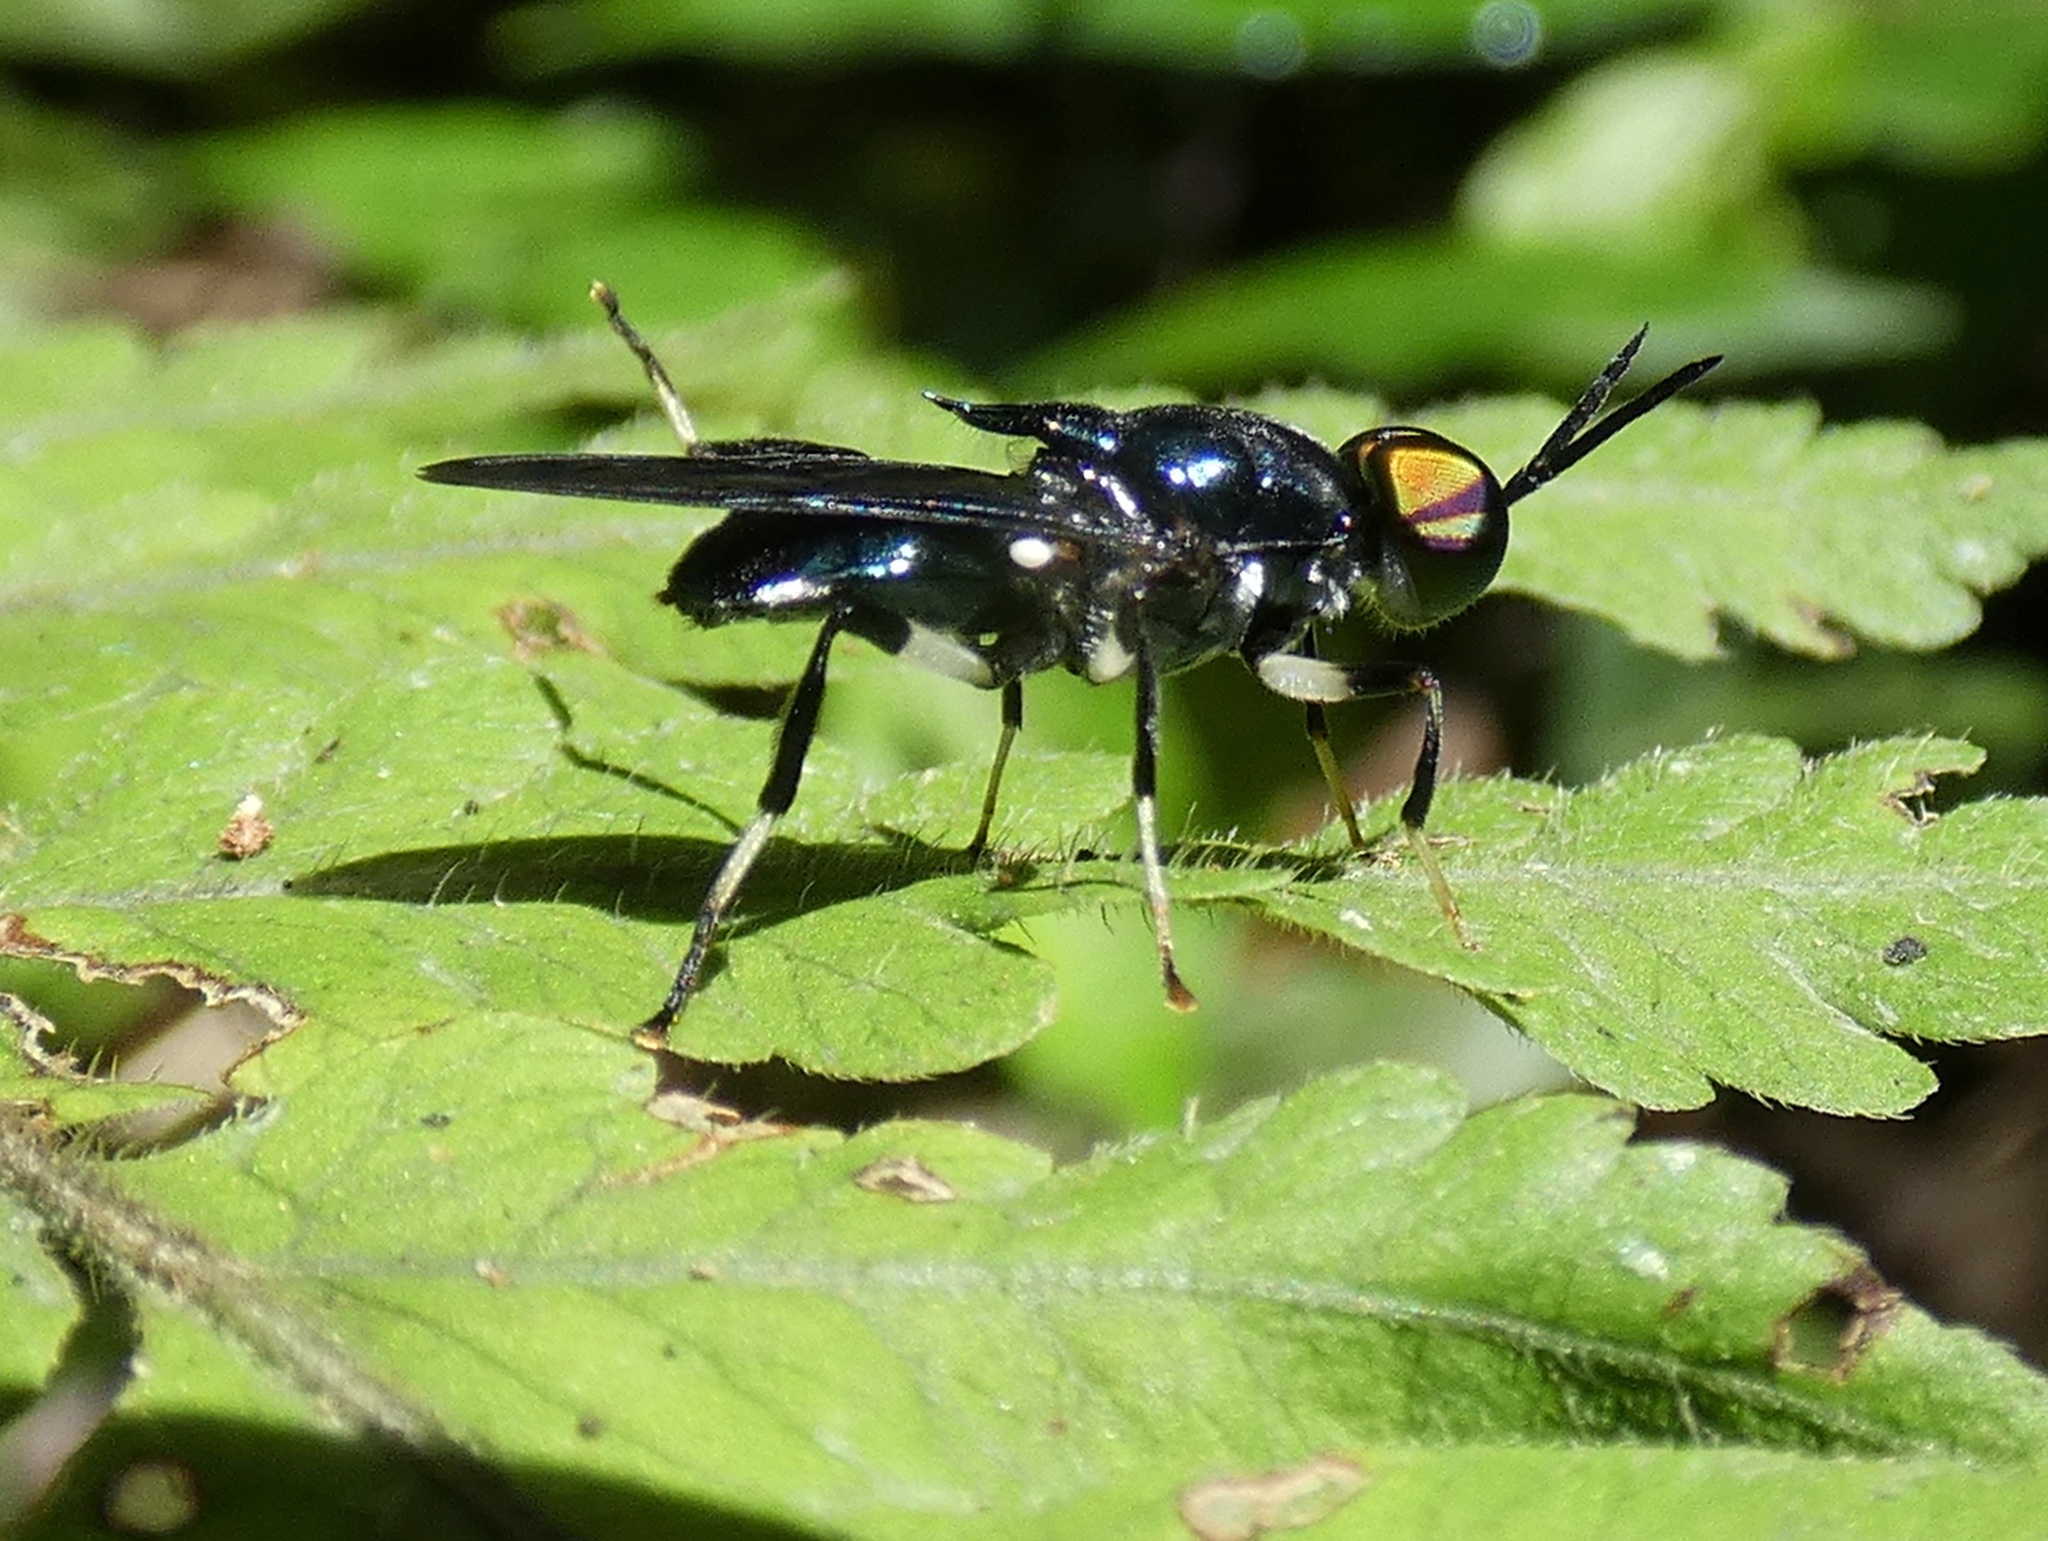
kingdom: Animalia
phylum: Arthropoda
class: Insecta
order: Diptera
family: Stratiomyidae
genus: Cyphomyia
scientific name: Cyphomyia varipes
